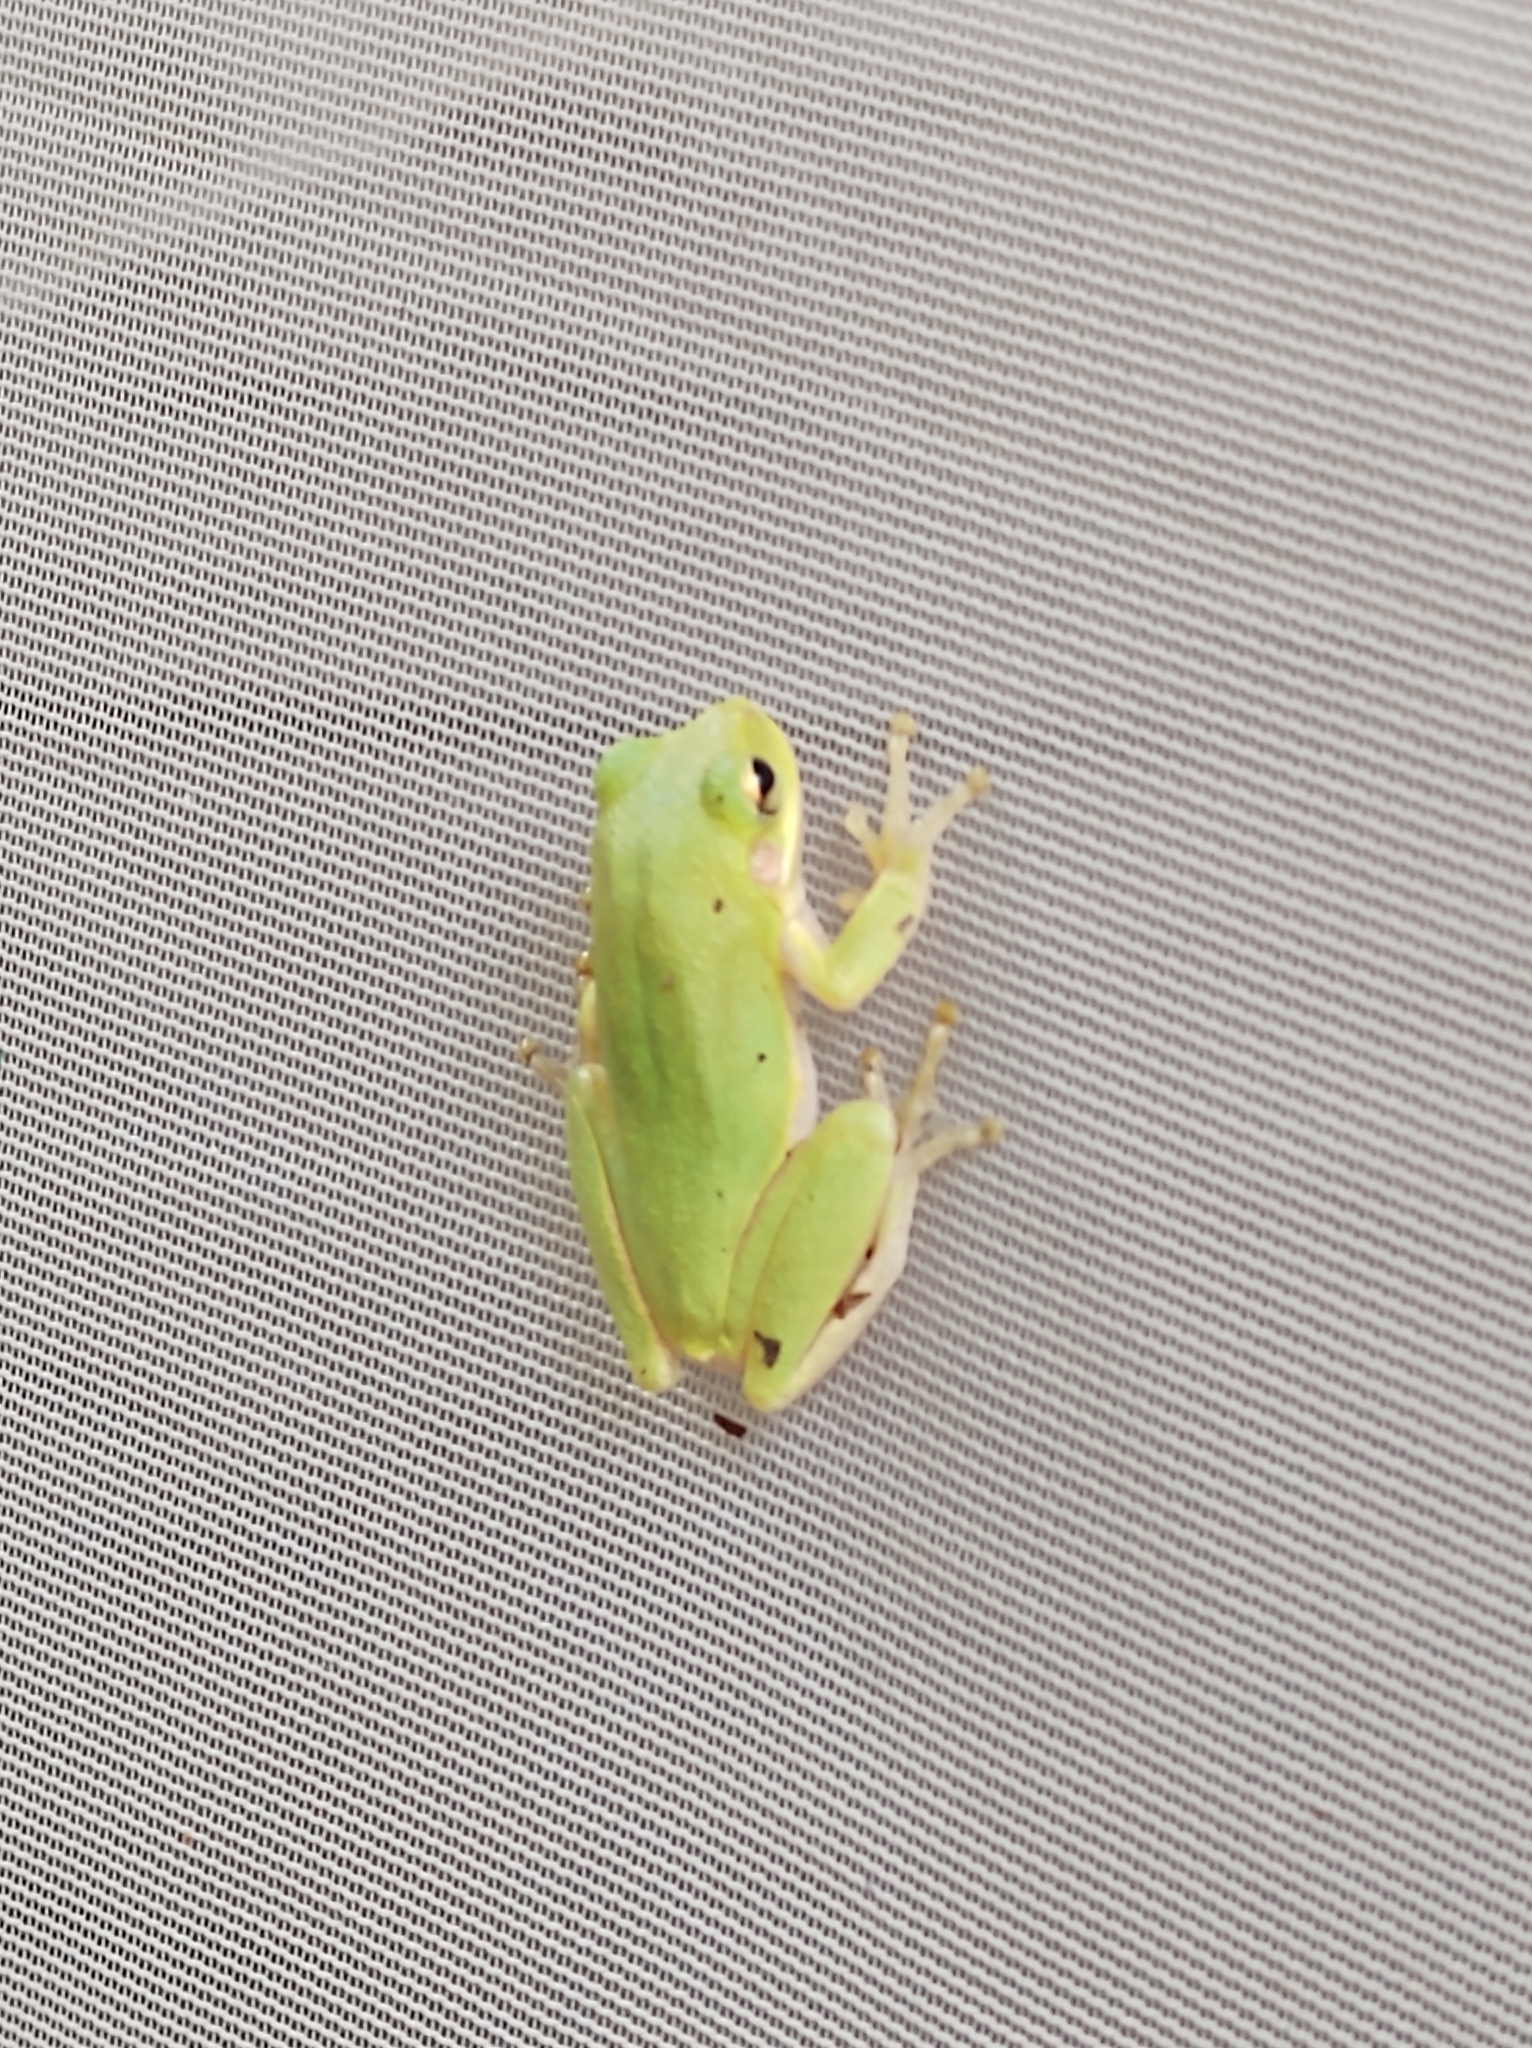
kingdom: Animalia
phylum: Chordata
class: Amphibia
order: Anura
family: Hylidae
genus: Dryophytes
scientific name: Dryophytes squirellus
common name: Squirrel treefrog
